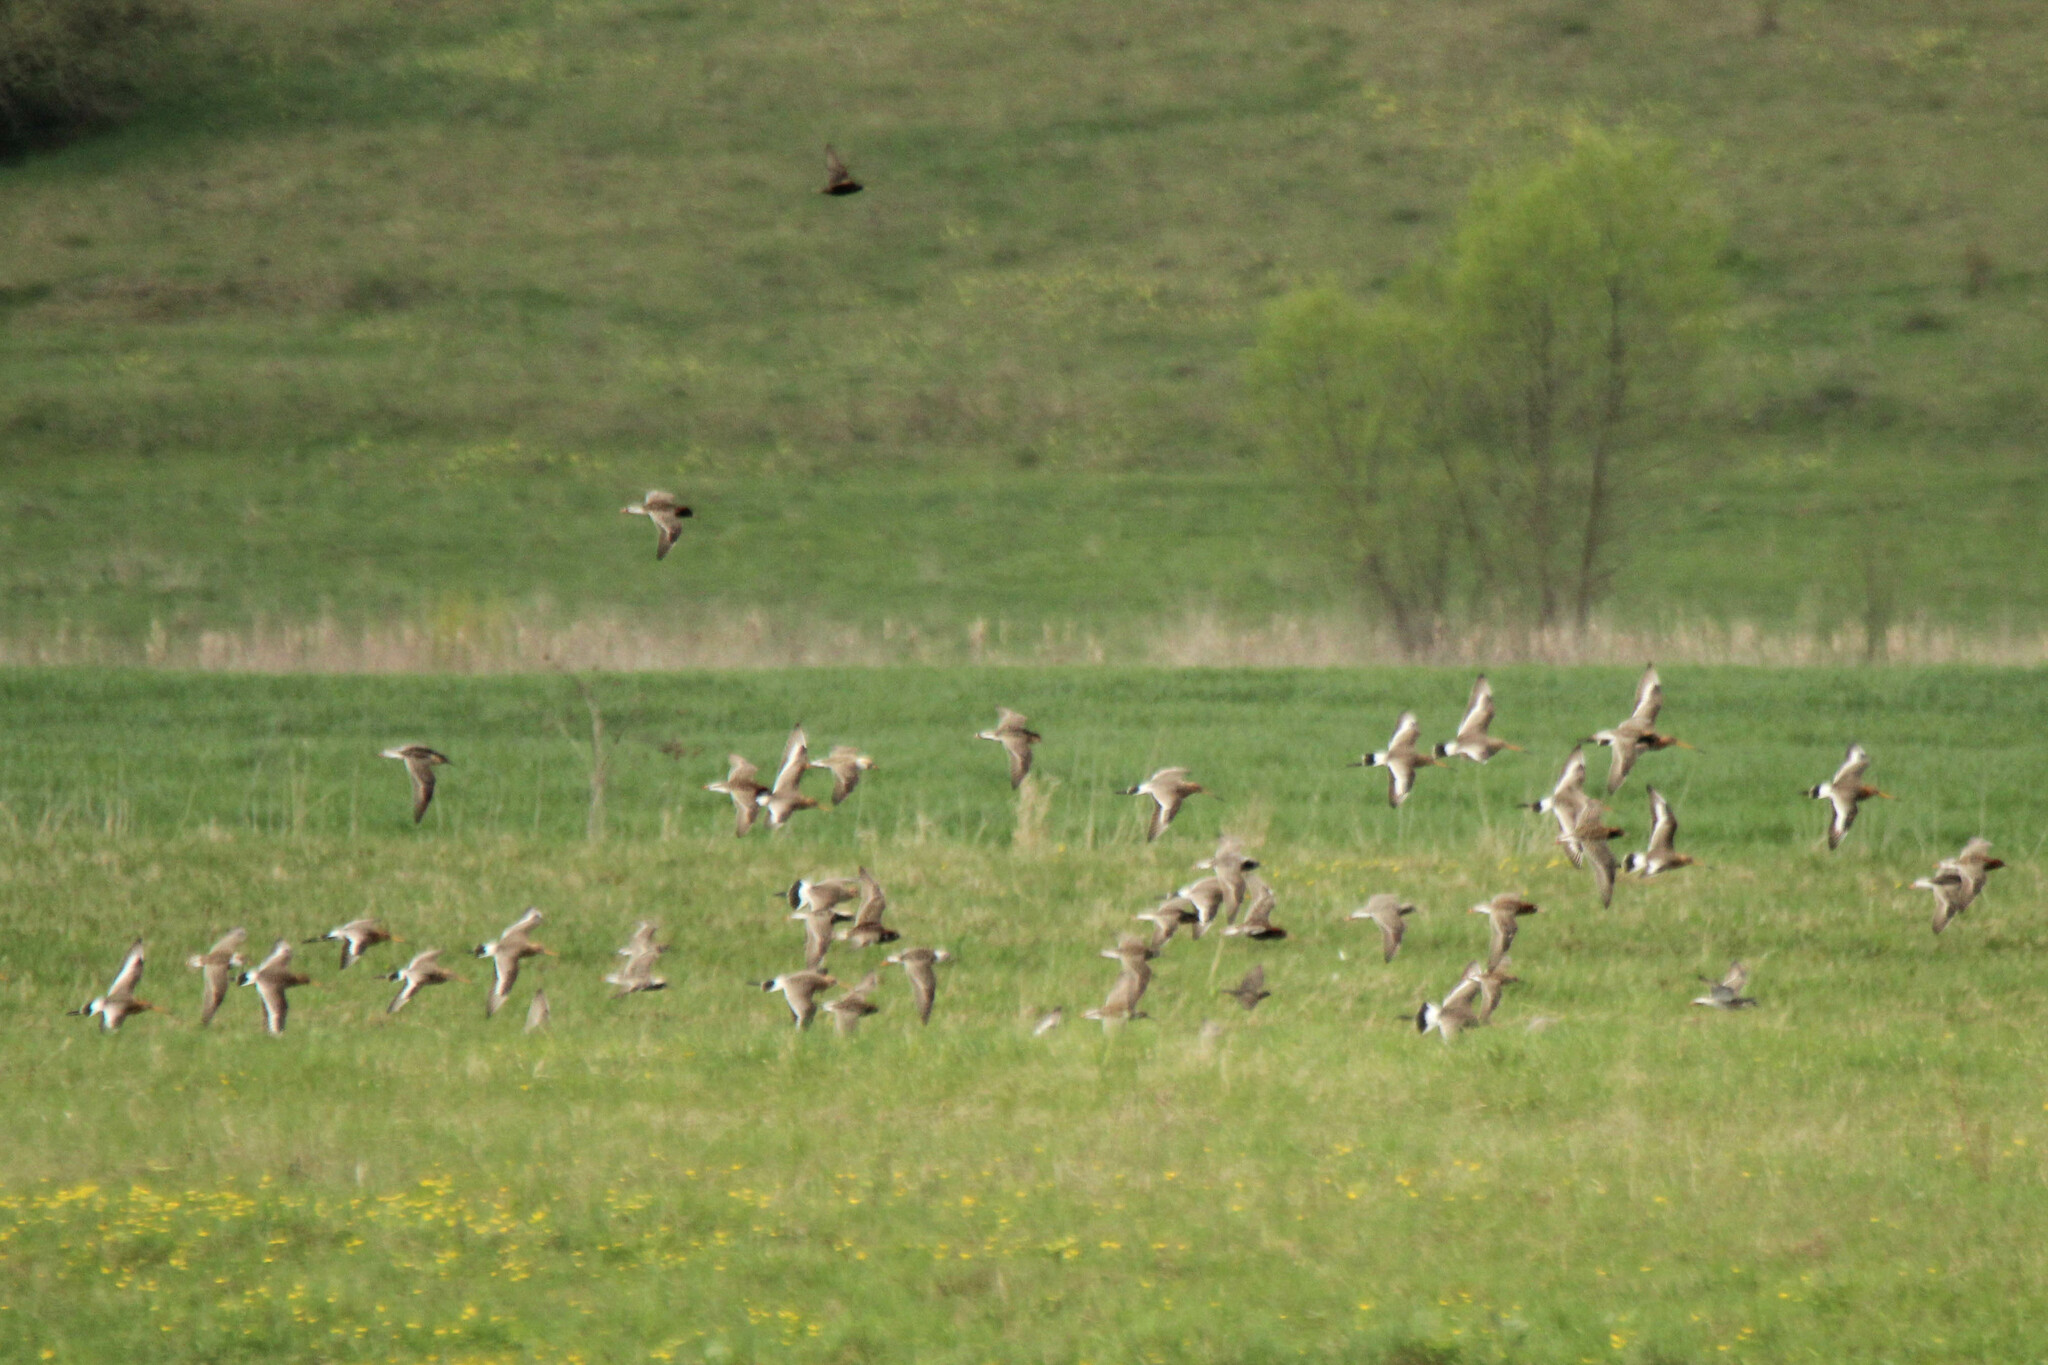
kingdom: Animalia
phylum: Chordata
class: Aves
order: Charadriiformes
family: Scolopacidae
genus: Limosa
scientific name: Limosa limosa
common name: Black-tailed godwit
